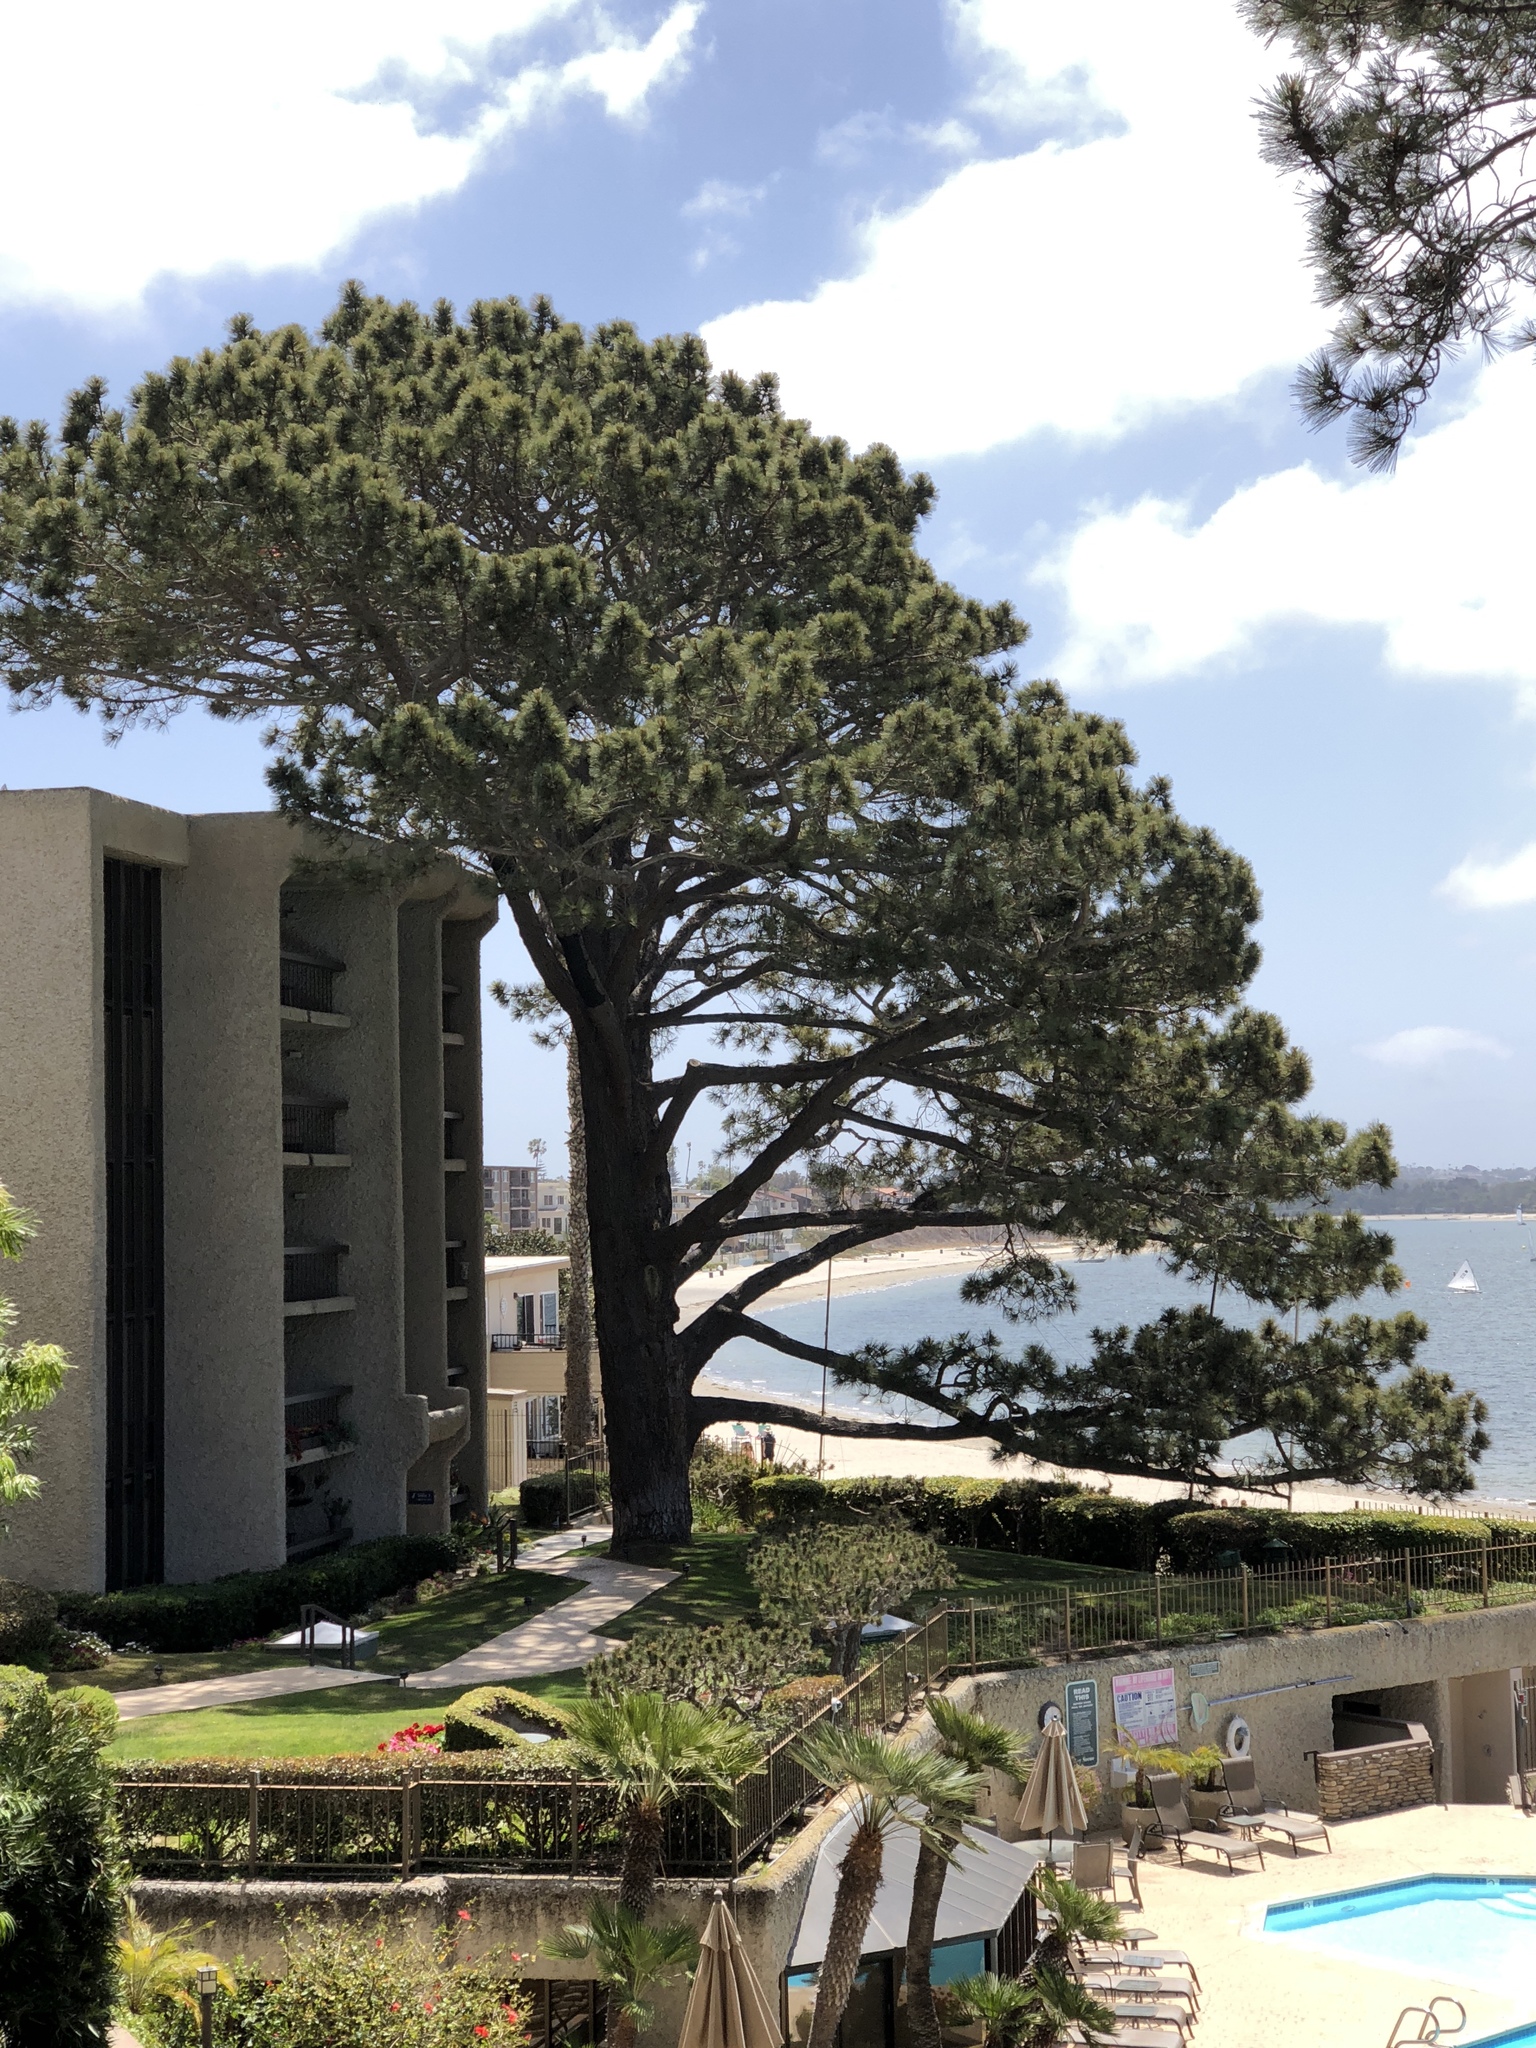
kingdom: Plantae
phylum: Tracheophyta
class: Pinopsida
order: Pinales
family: Pinaceae
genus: Pinus
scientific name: Pinus torreyana
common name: Torrey pine
